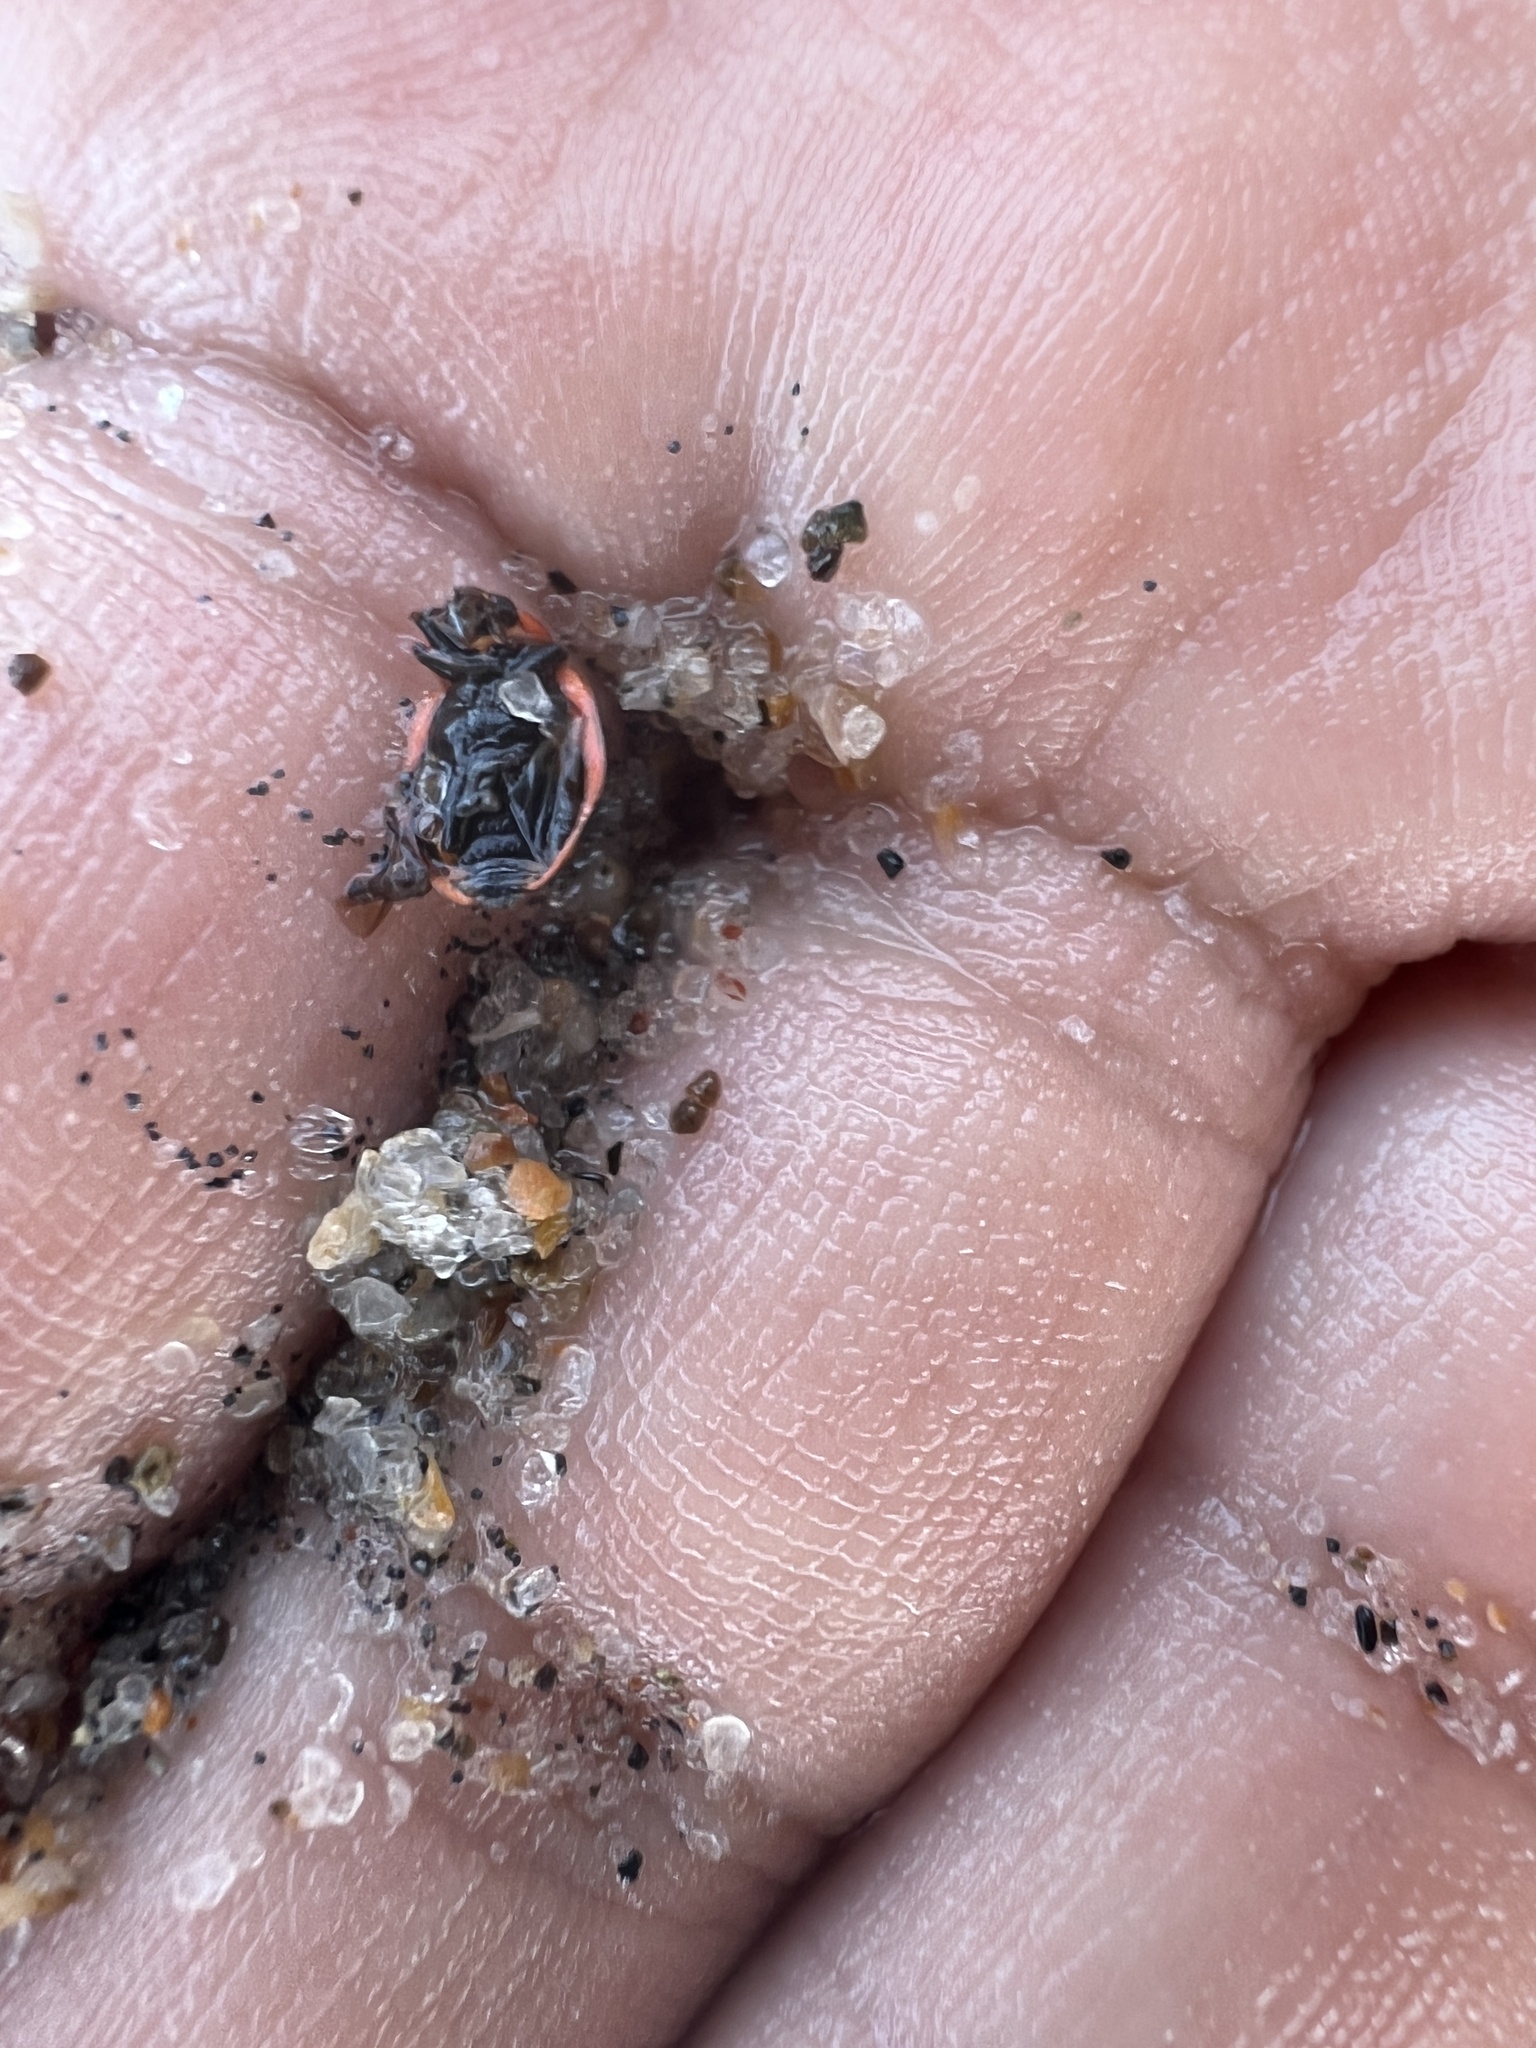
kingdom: Animalia
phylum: Arthropoda
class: Insecta
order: Coleoptera
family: Coccinellidae
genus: Naemia
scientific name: Naemia seriata
